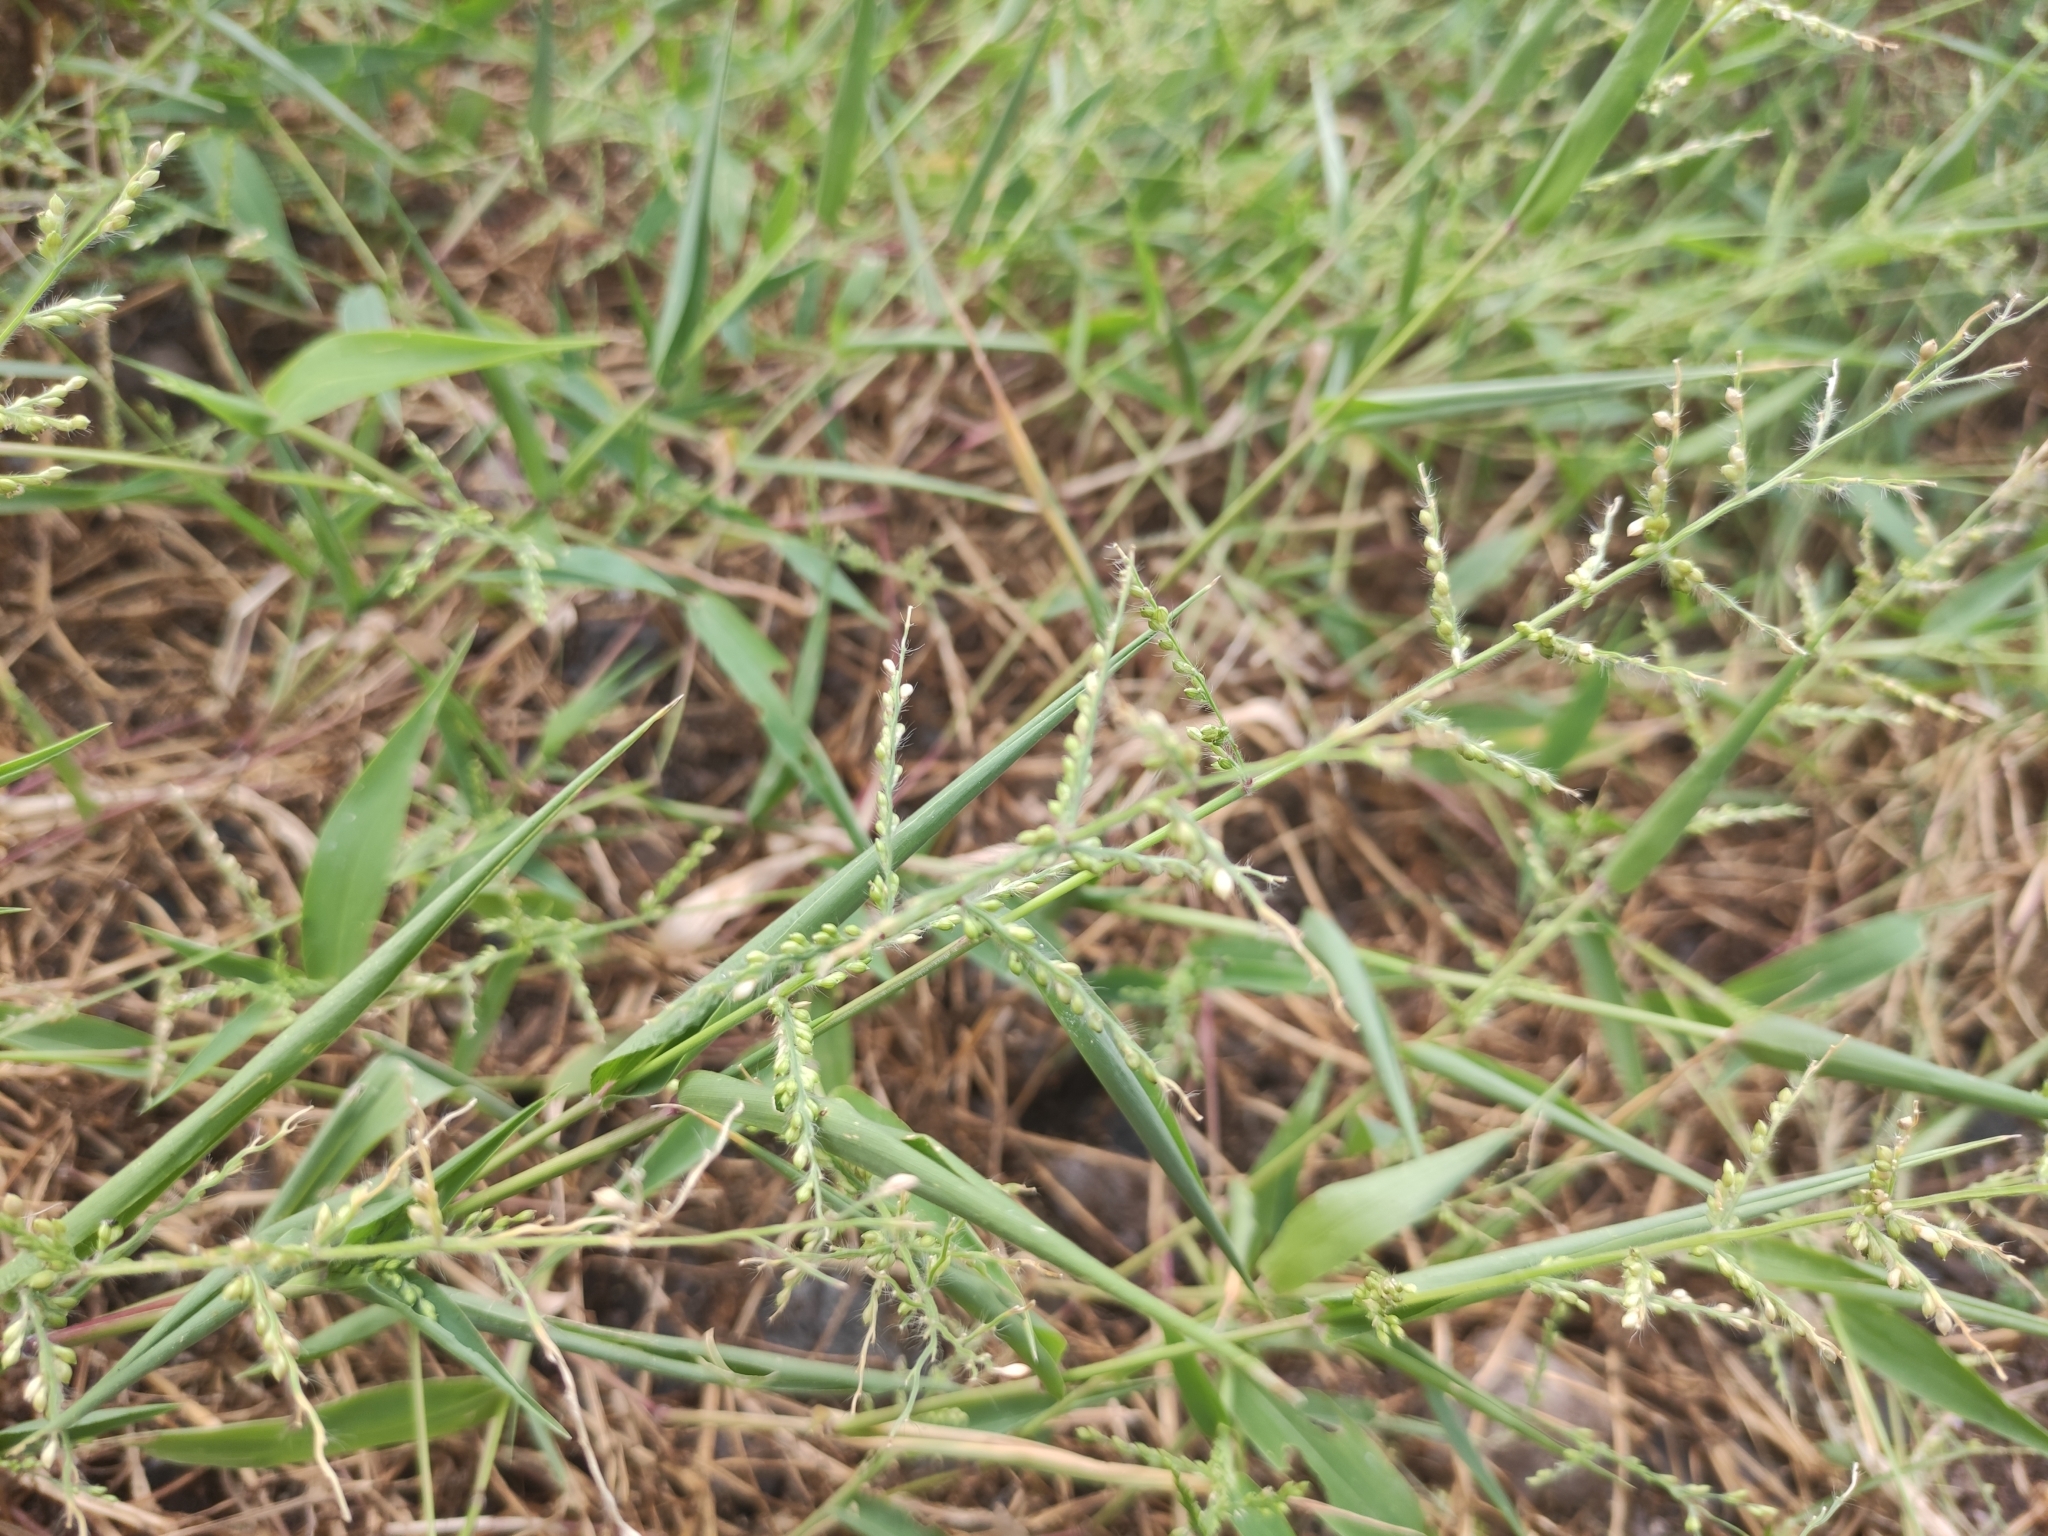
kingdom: Plantae
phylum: Tracheophyta
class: Liliopsida
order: Poales
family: Poaceae
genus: Urochloa
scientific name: Urochloa ramosa
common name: Browntop millet
